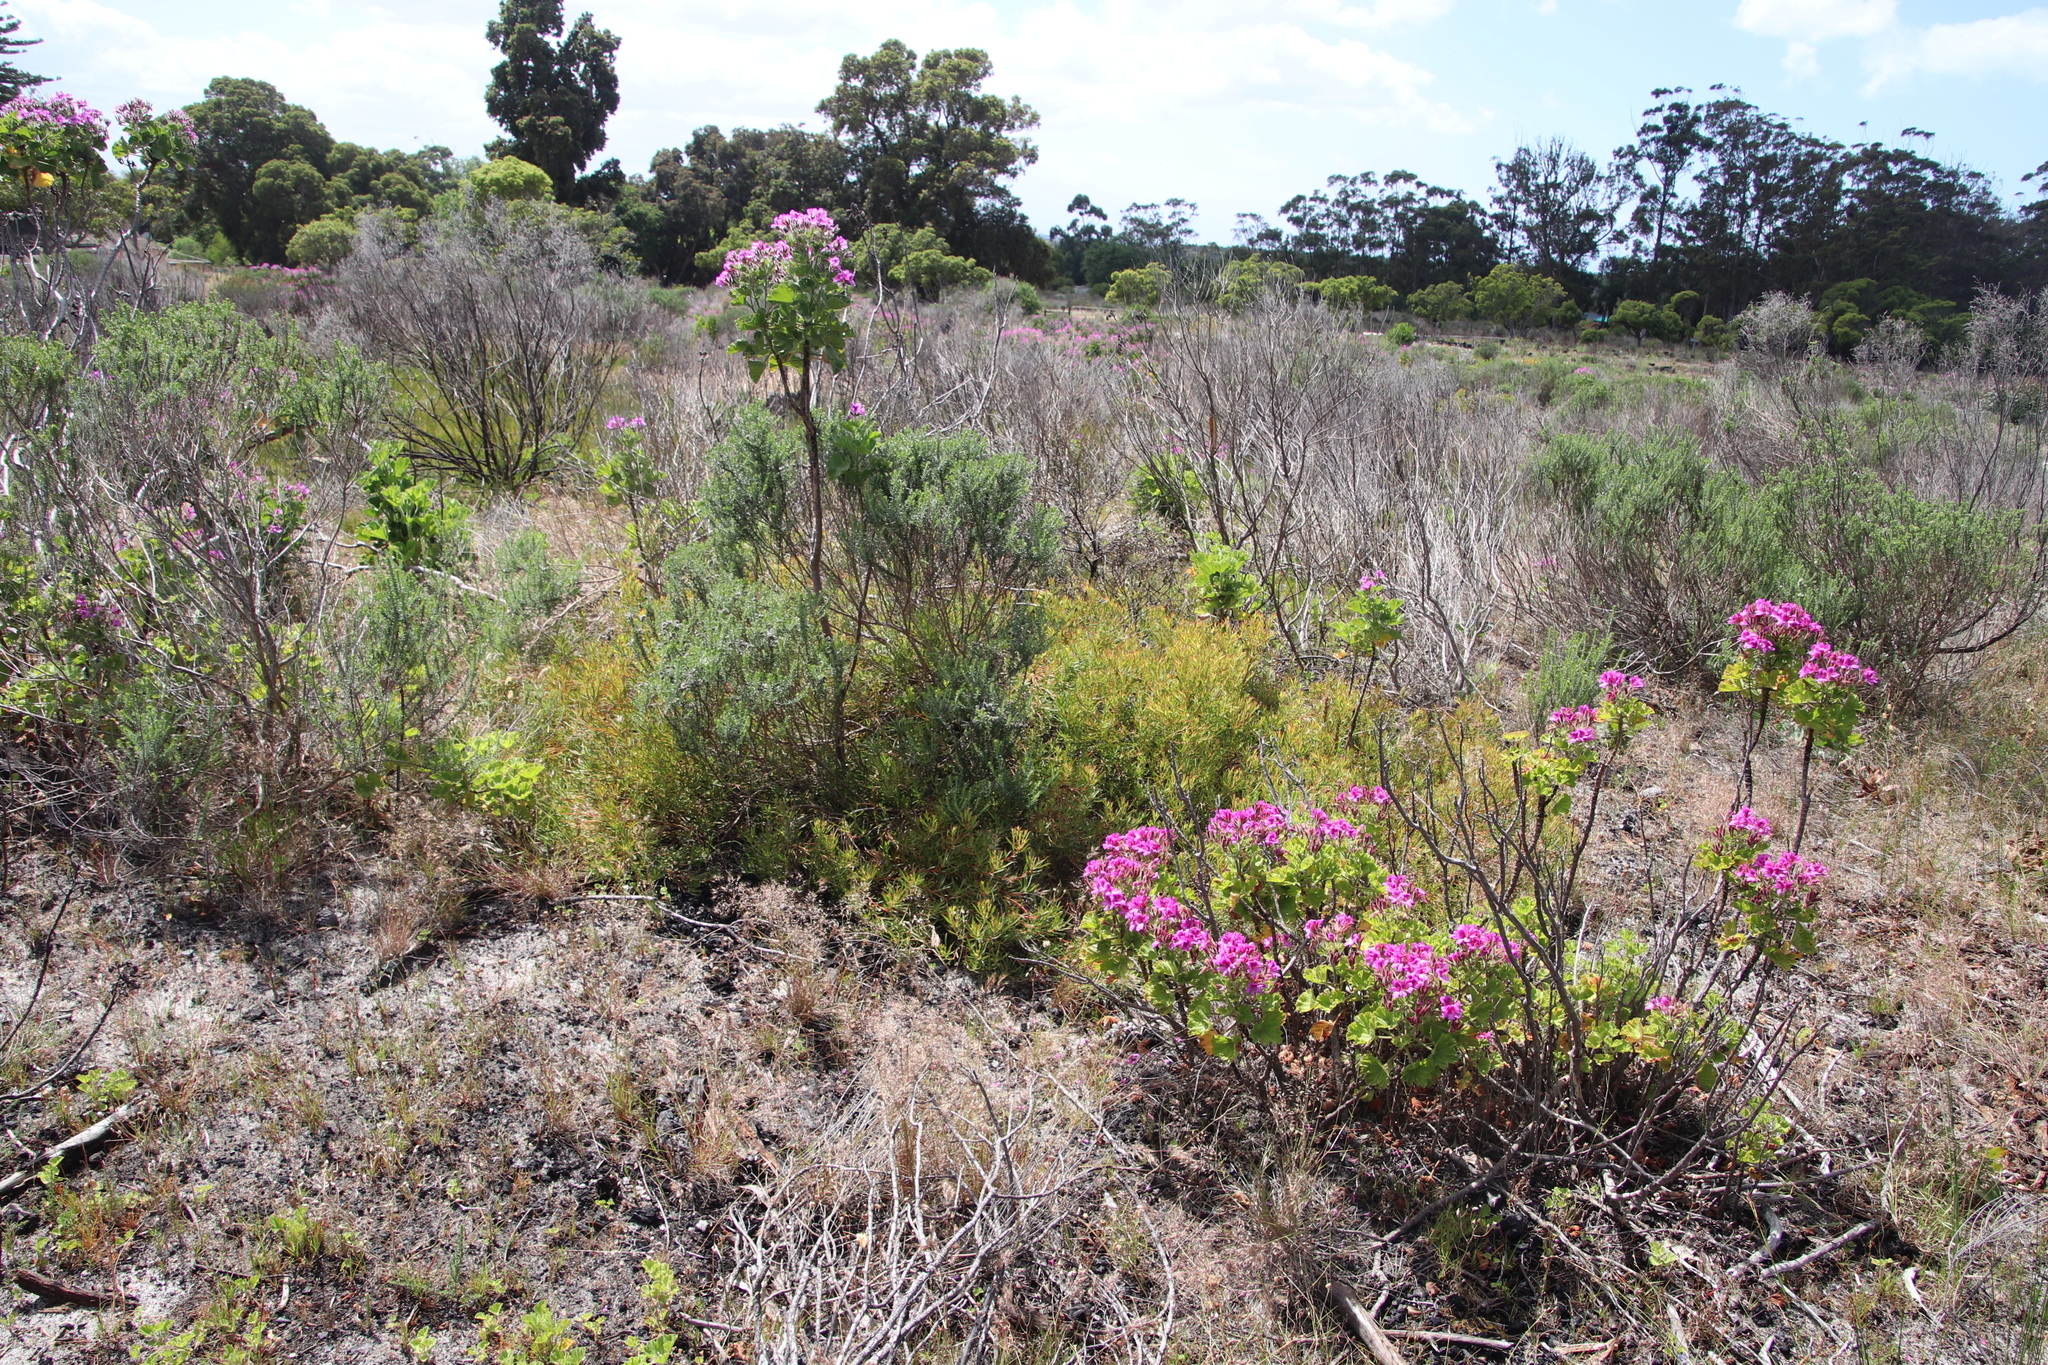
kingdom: Plantae
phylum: Tracheophyta
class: Magnoliopsida
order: Proteales
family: Proteaceae
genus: Leucadendron
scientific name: Leucadendron salignum
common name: Common sunshine conebush
